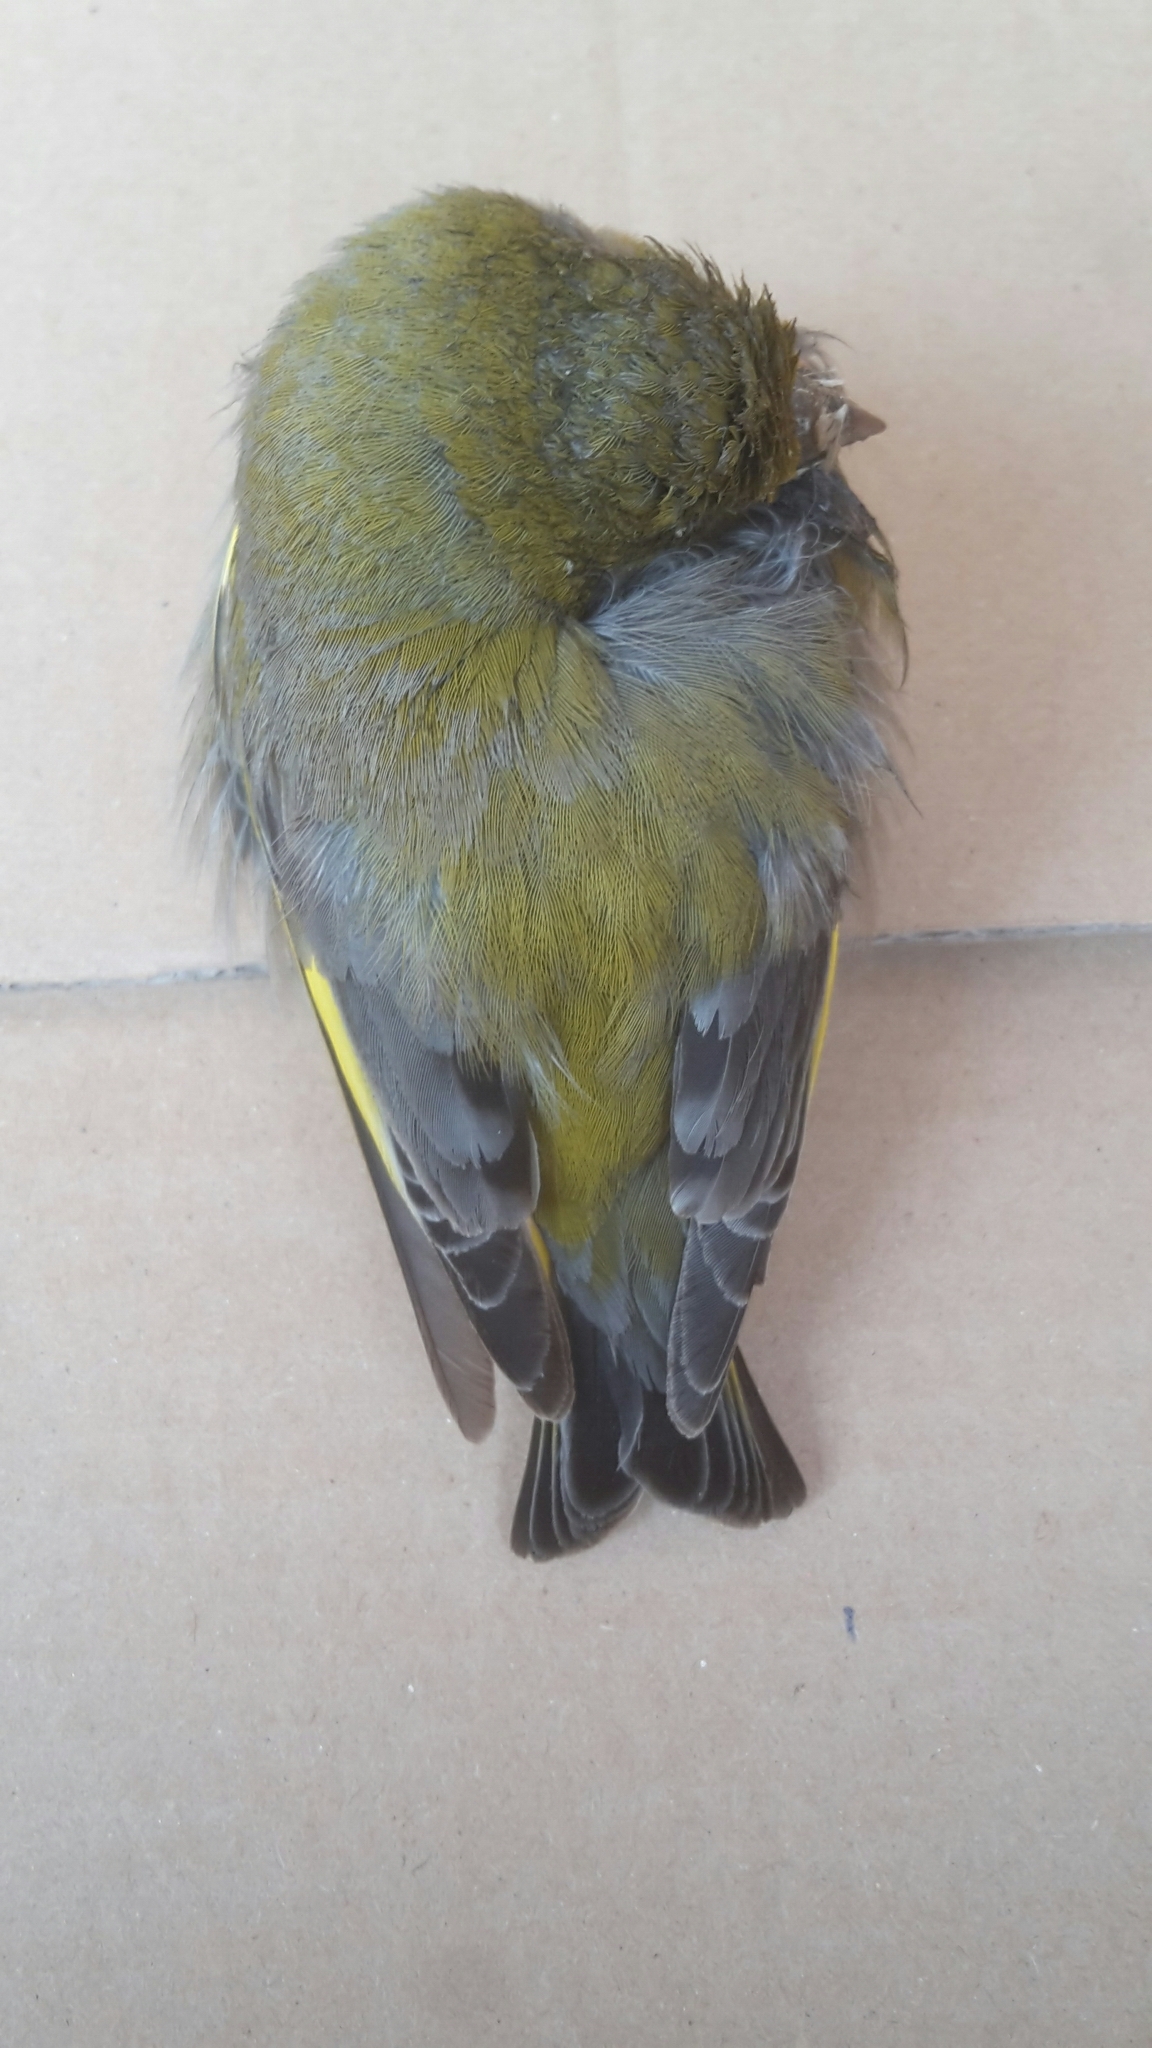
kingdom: Plantae
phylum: Tracheophyta
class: Liliopsida
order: Poales
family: Poaceae
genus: Chloris
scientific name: Chloris chloris
